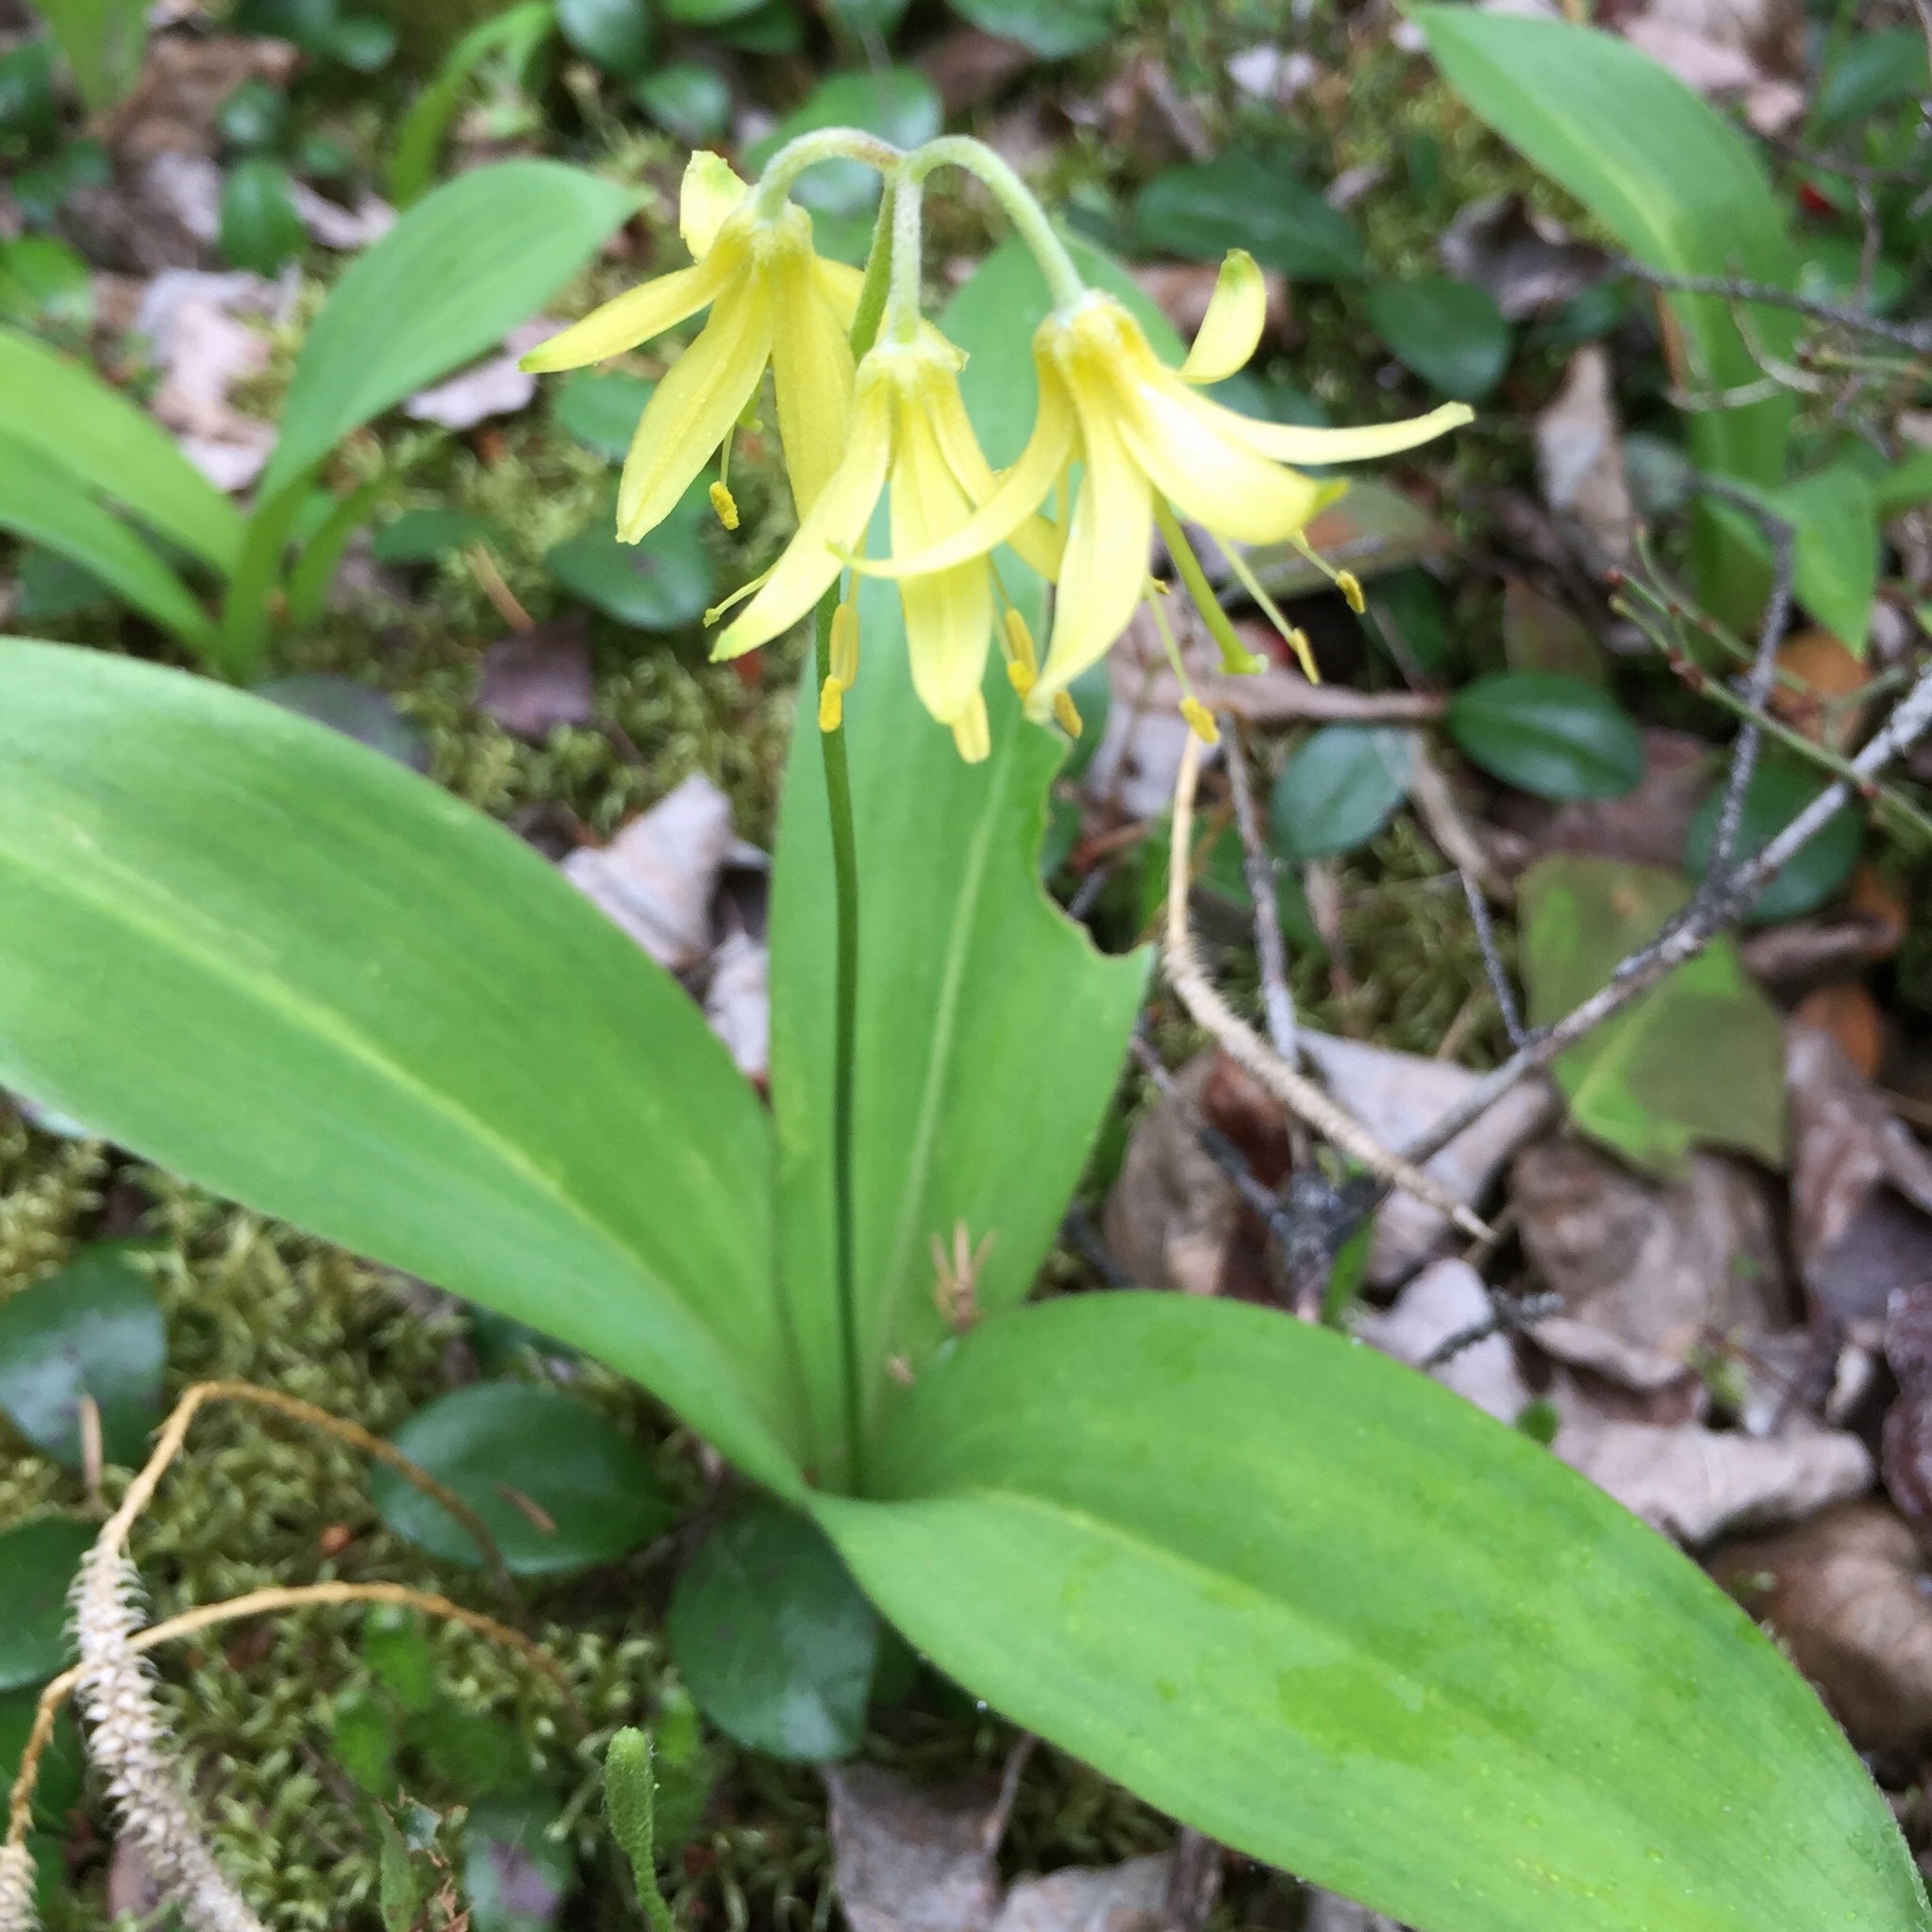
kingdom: Plantae
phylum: Tracheophyta
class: Liliopsida
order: Liliales
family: Liliaceae
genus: Clintonia
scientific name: Clintonia borealis
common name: Yellow clintonia
